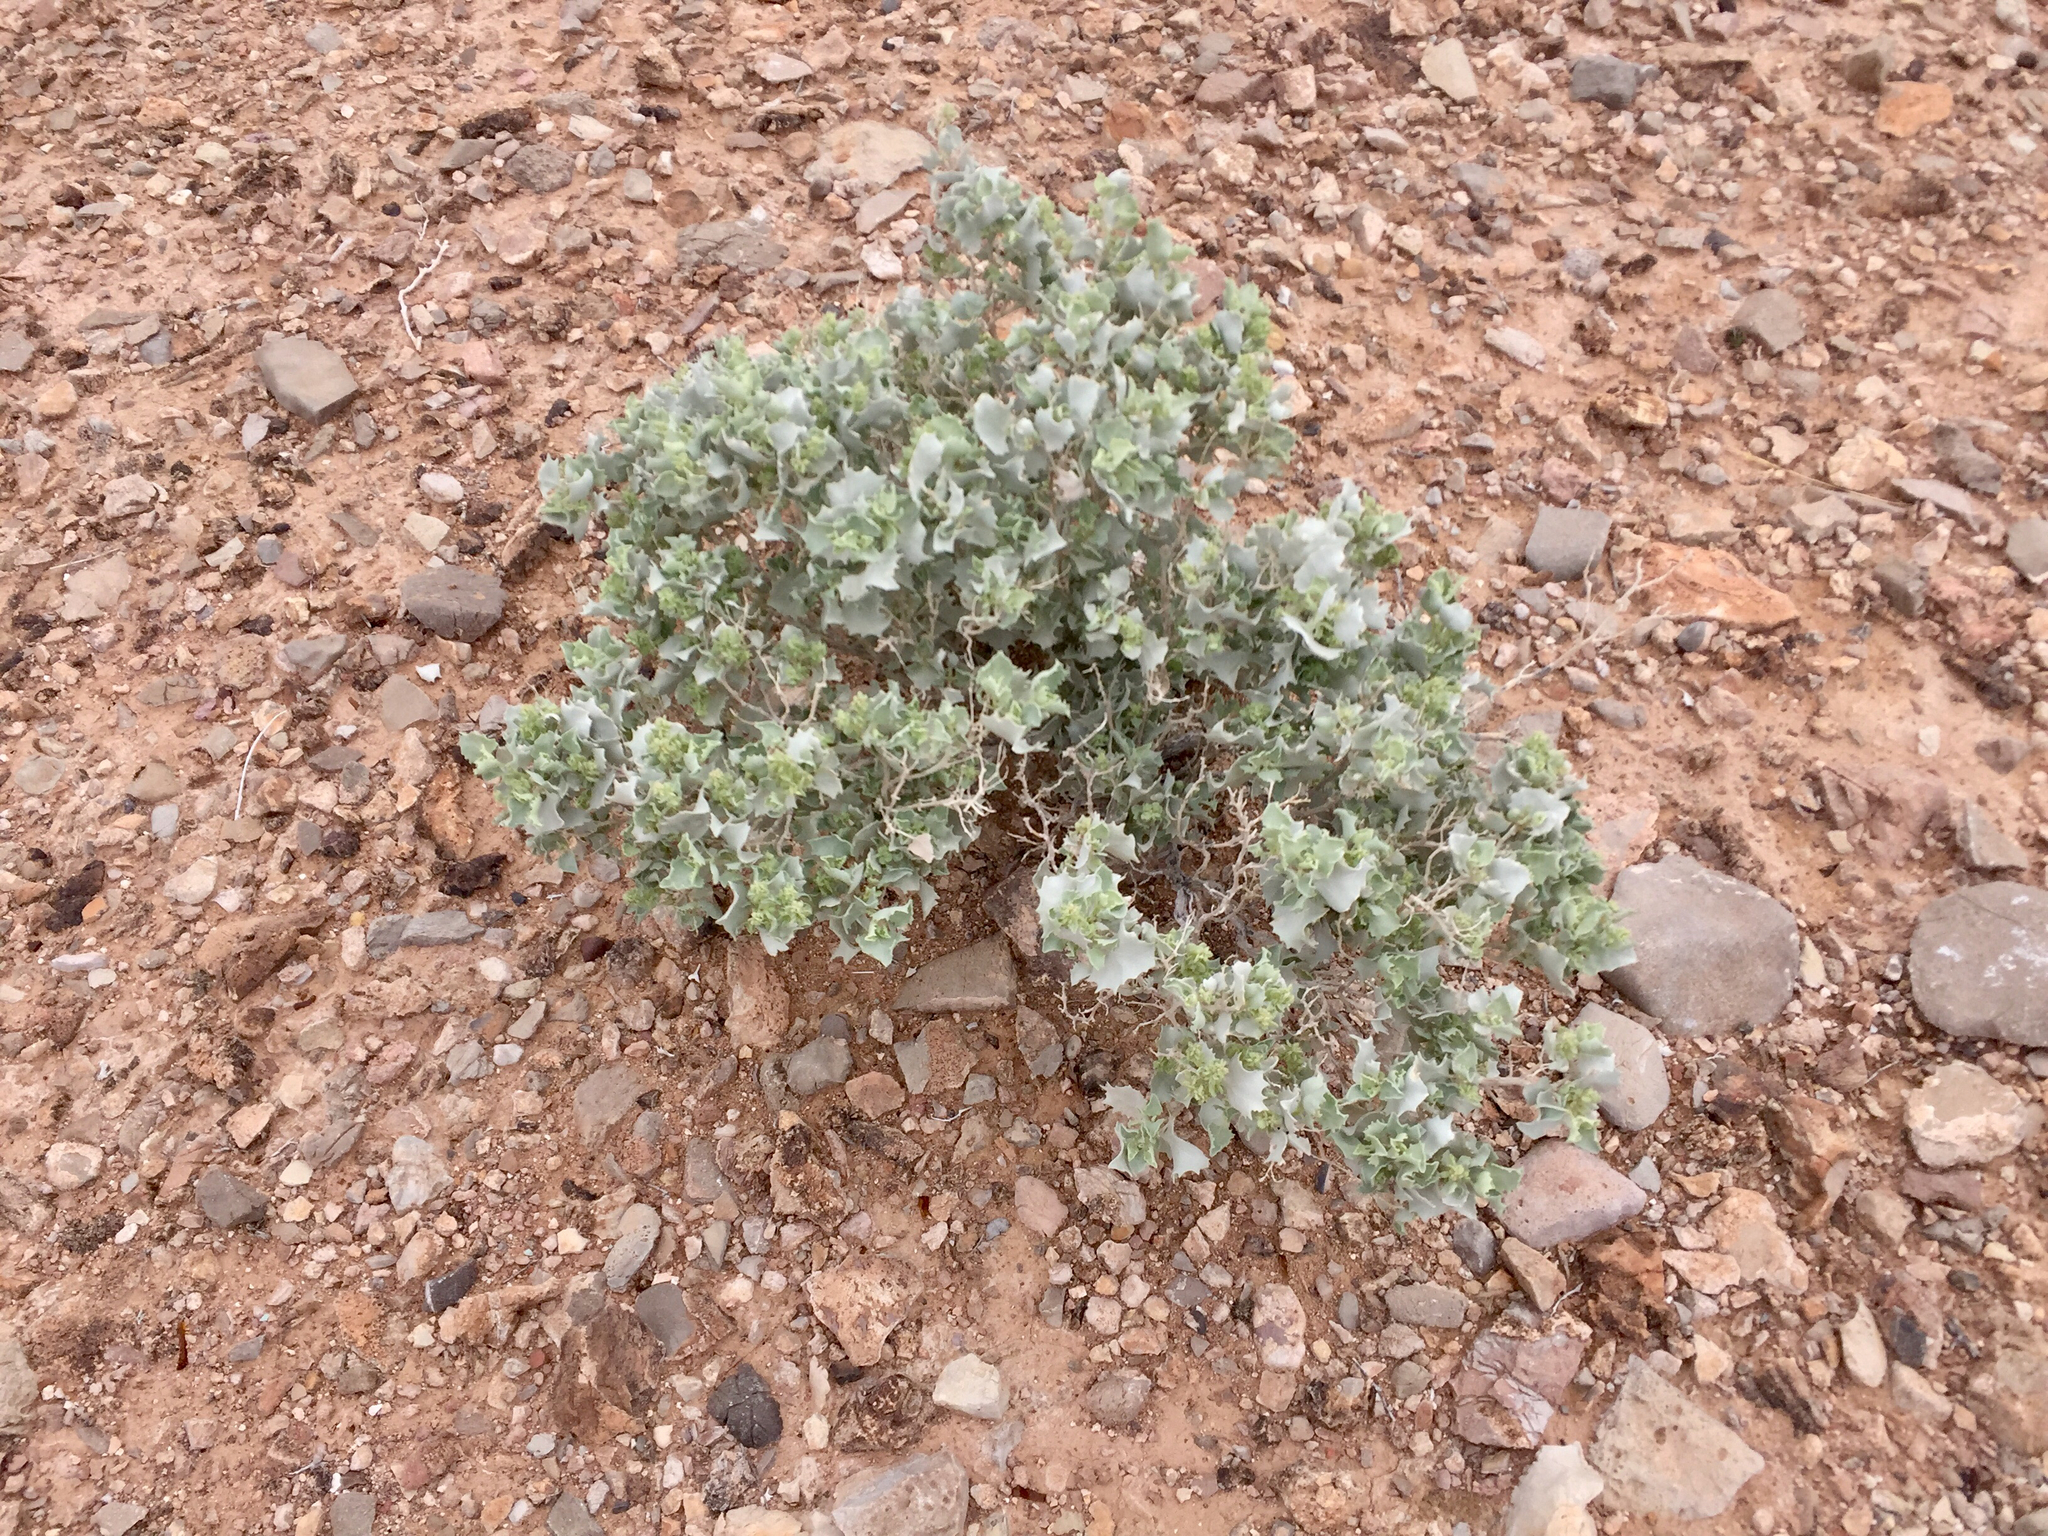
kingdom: Plantae
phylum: Tracheophyta
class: Magnoliopsida
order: Caryophyllales
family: Amaranthaceae
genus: Atriplex
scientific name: Atriplex hymenelytra
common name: Desert-holly
